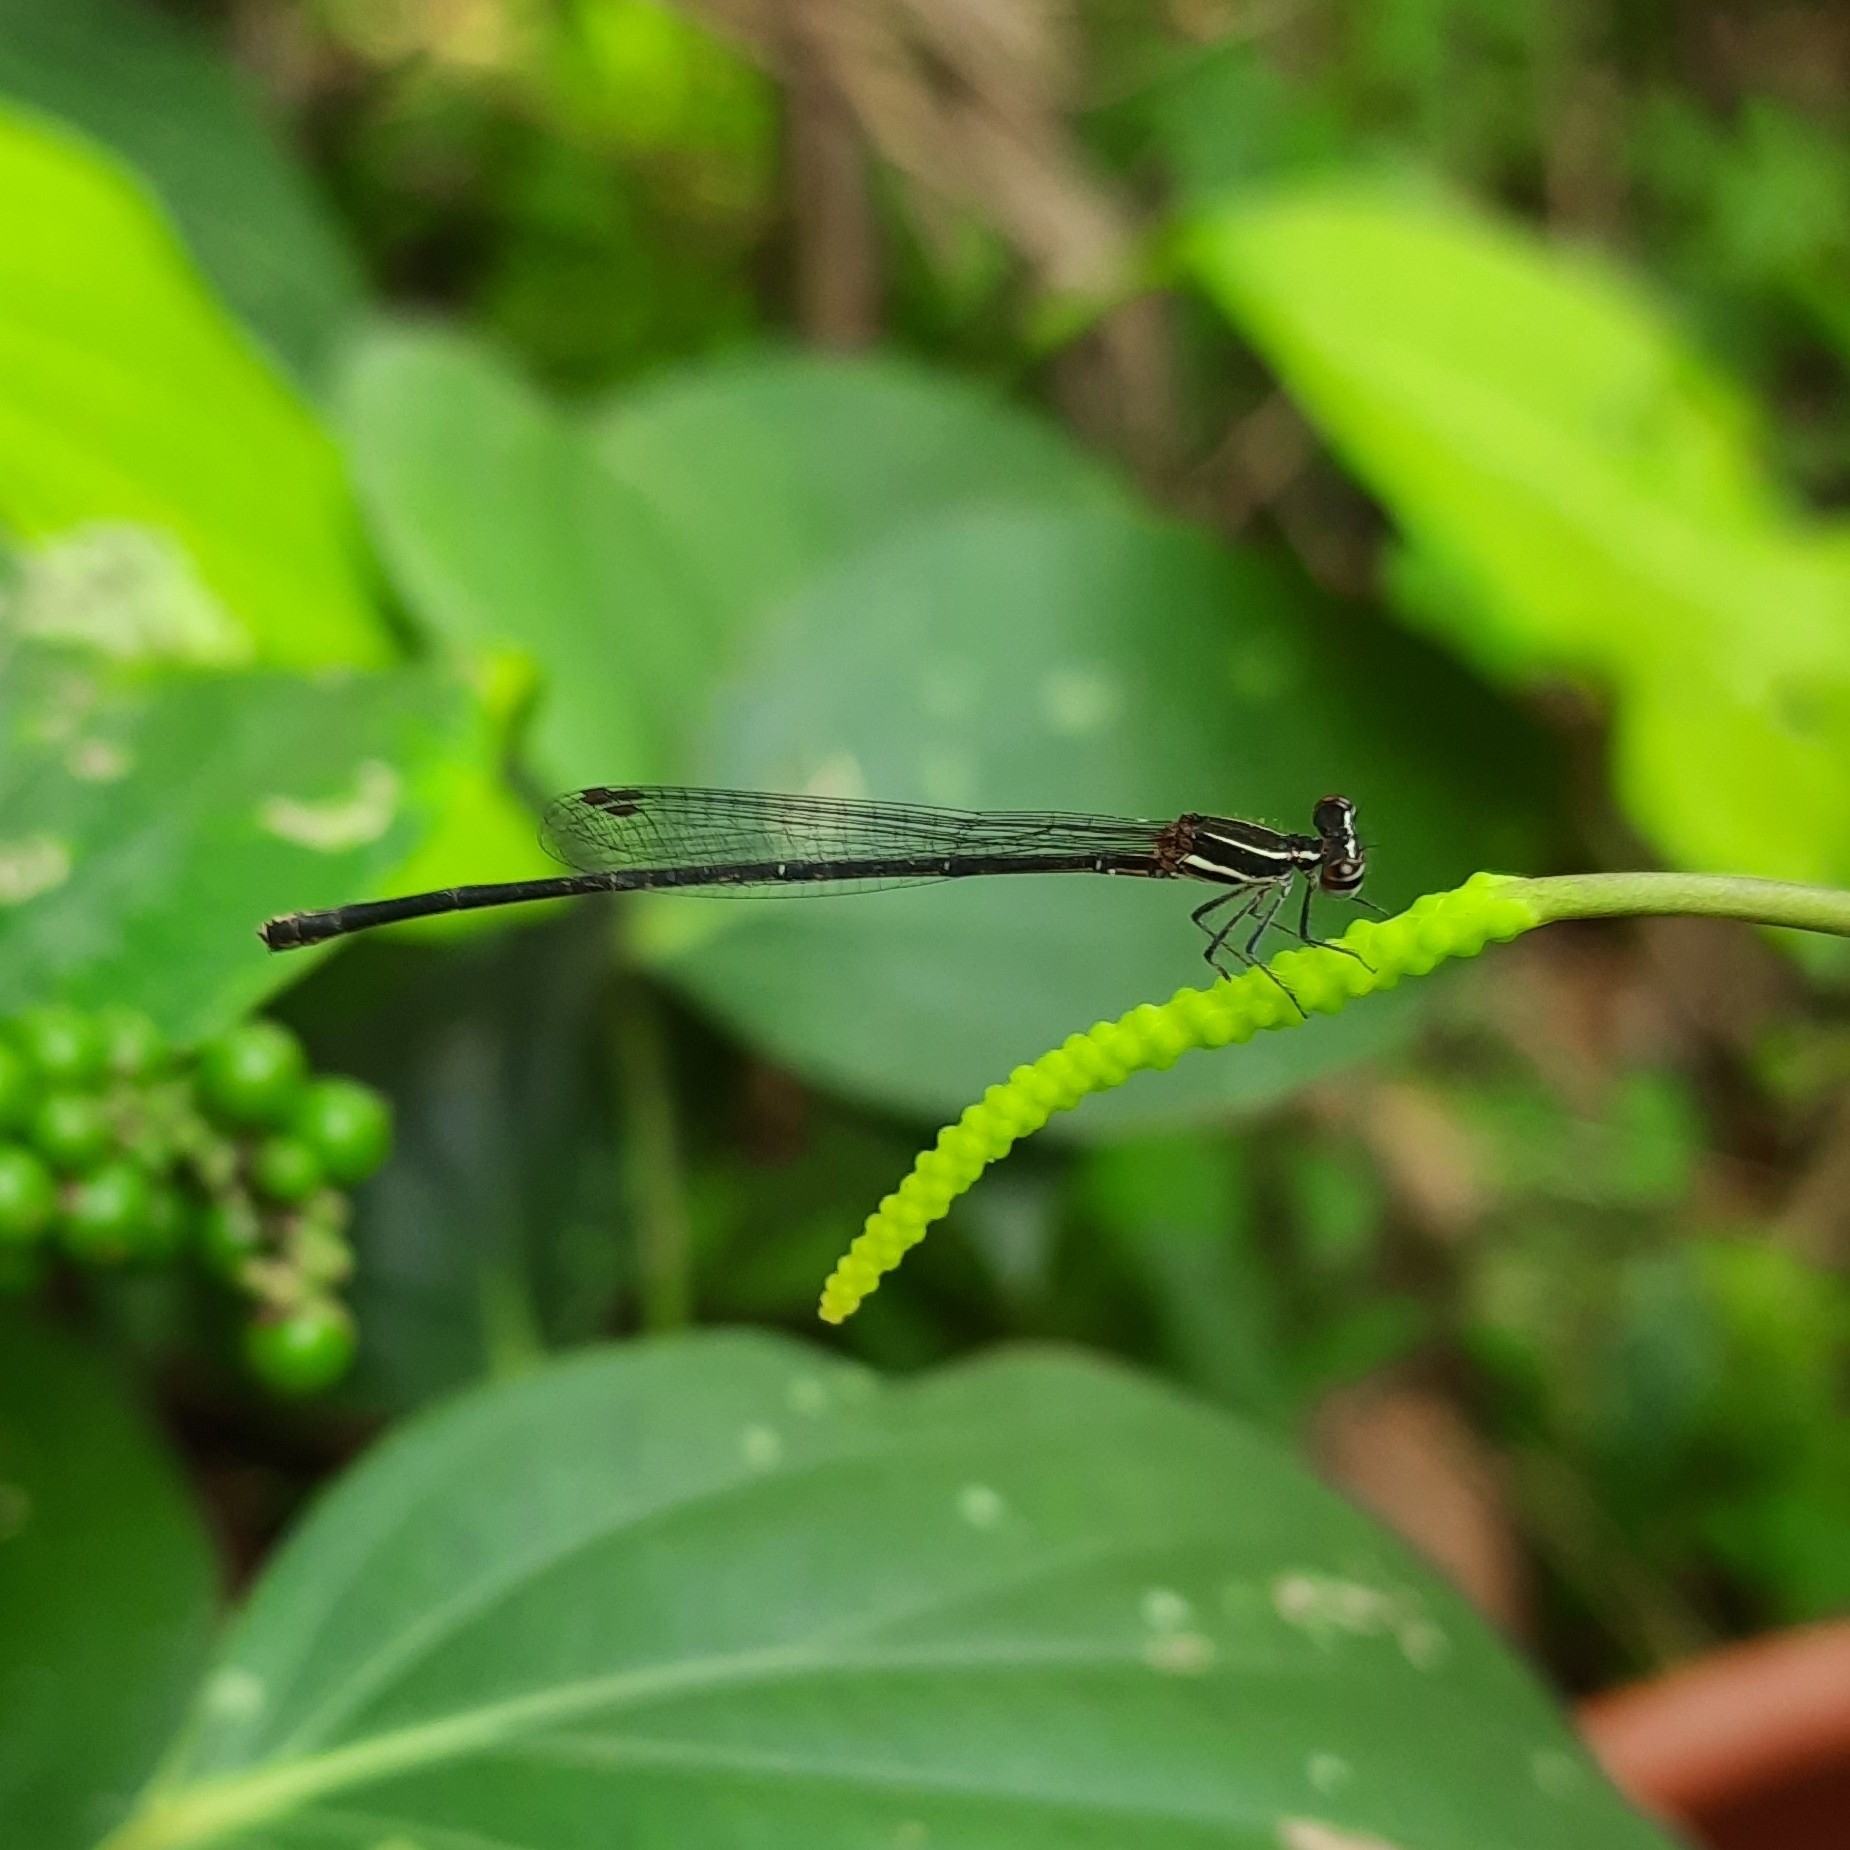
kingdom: Animalia
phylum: Arthropoda
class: Insecta
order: Odonata
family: Platycnemididae
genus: Prodasineura
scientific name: Prodasineura verticalis
